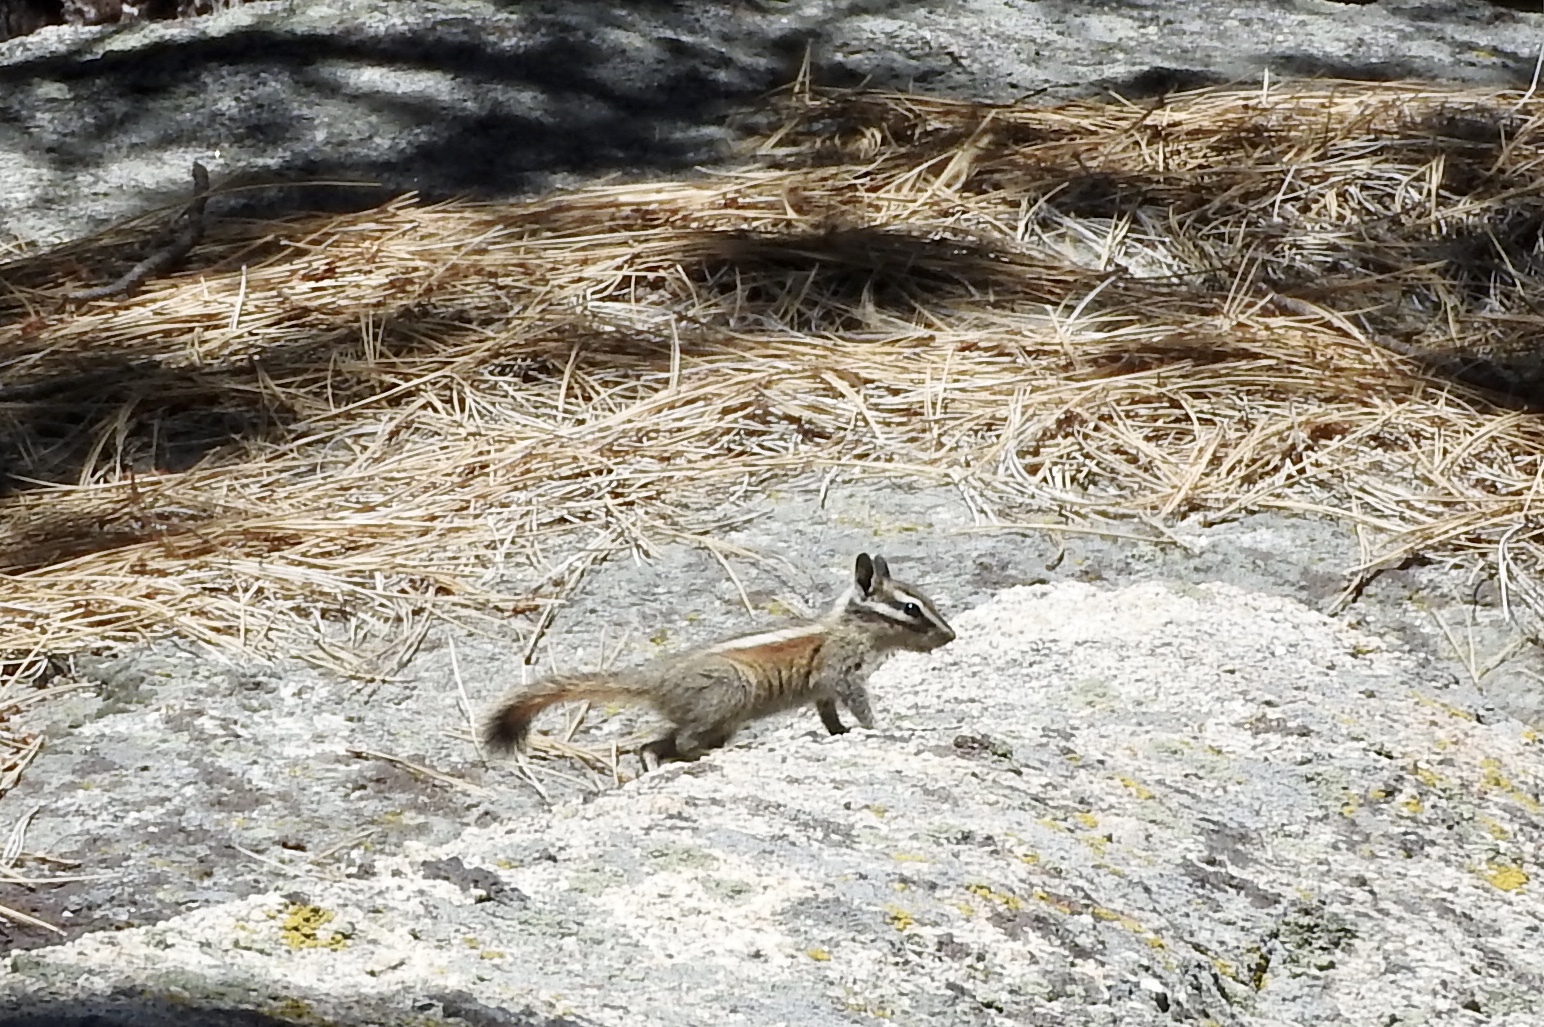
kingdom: Animalia
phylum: Chordata
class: Mammalia
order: Rodentia
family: Sciuridae
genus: Tamias
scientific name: Tamias speciosus
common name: Lodgepole chipmunk
